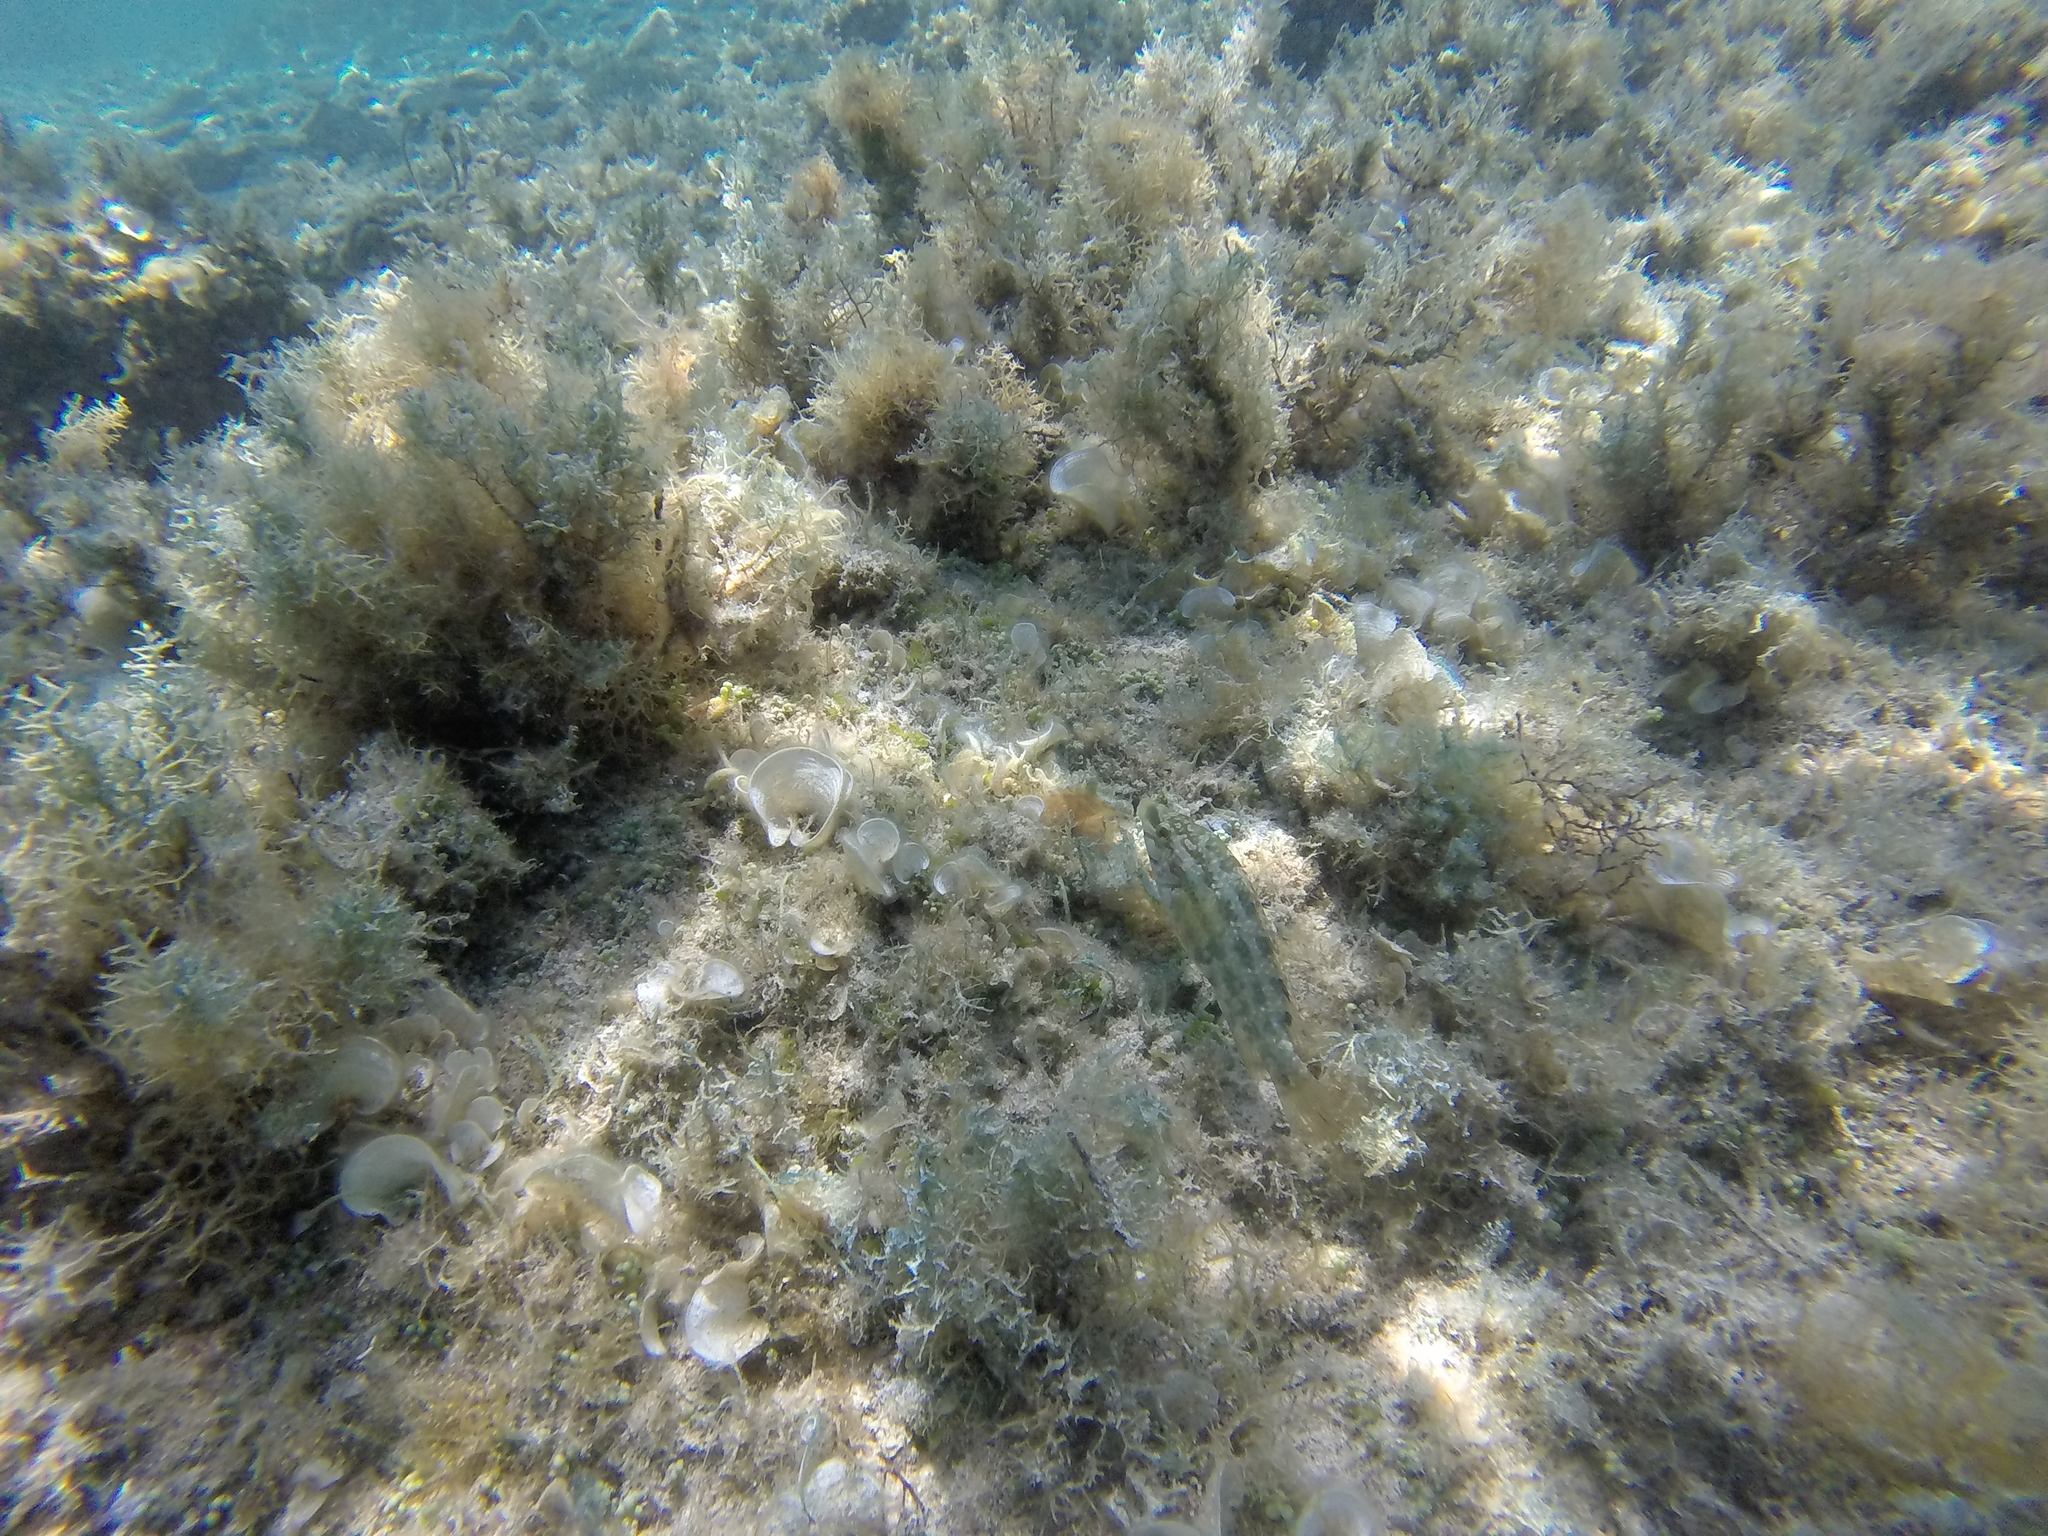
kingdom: Animalia
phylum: Chordata
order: Perciformes
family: Labridae
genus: Symphodus
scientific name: Symphodus roissali
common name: Five-spotted wrasse
